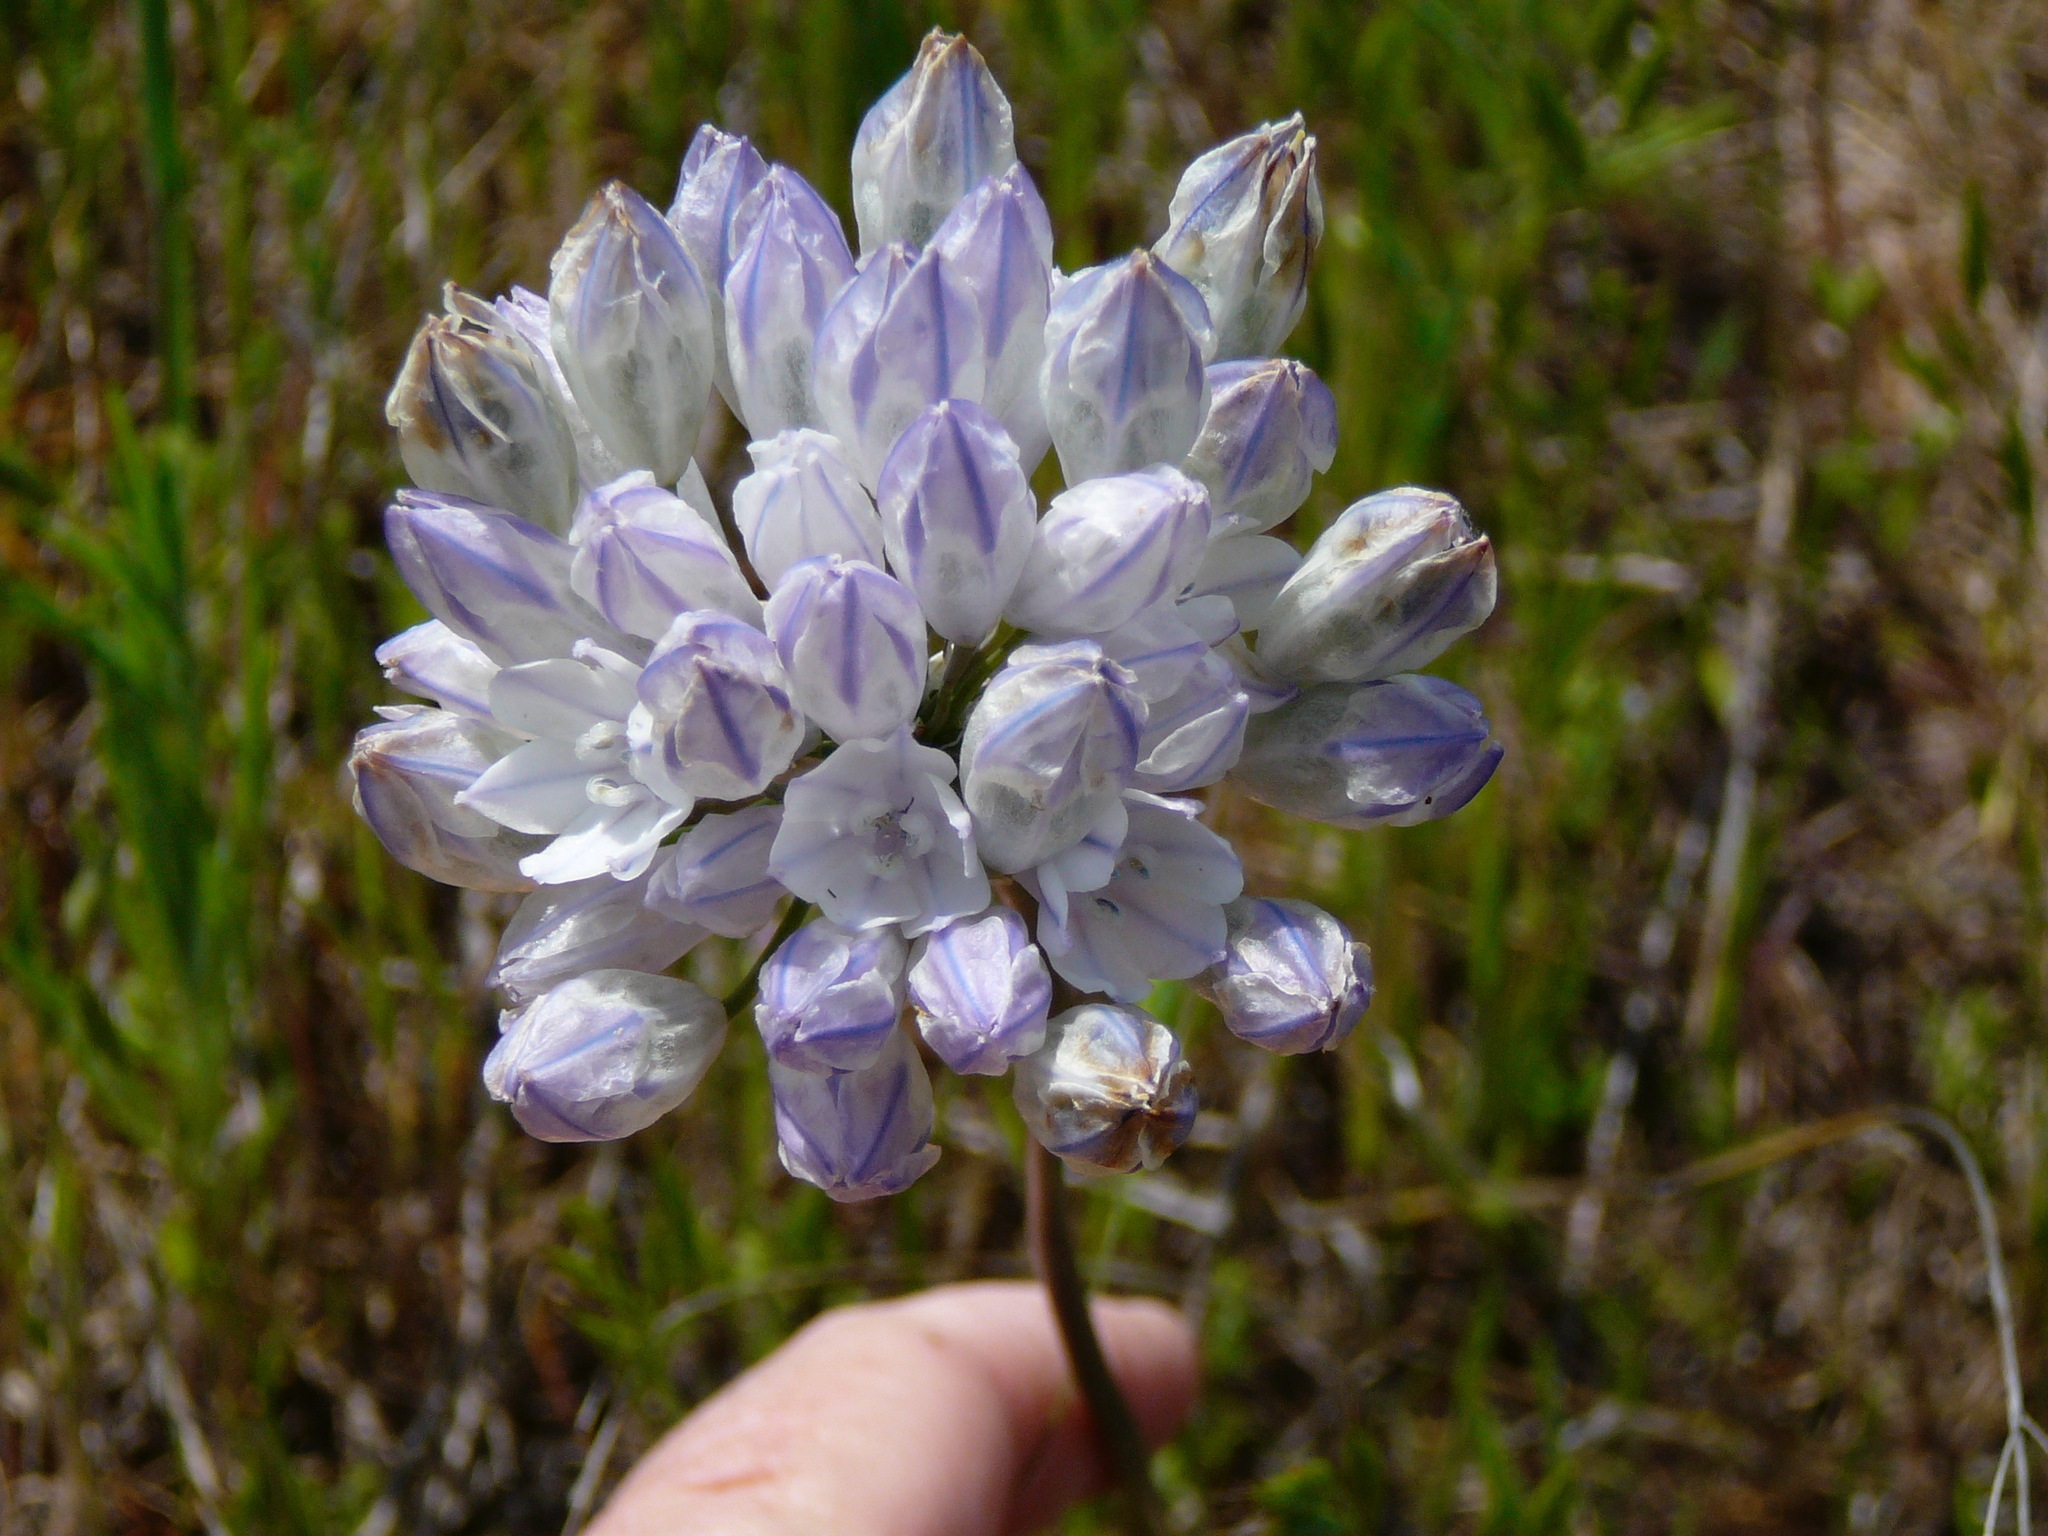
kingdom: Plantae
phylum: Tracheophyta
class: Liliopsida
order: Asparagales
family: Asparagaceae
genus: Triteleia
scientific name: Triteleia grandiflora
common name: Wild hyacinth
